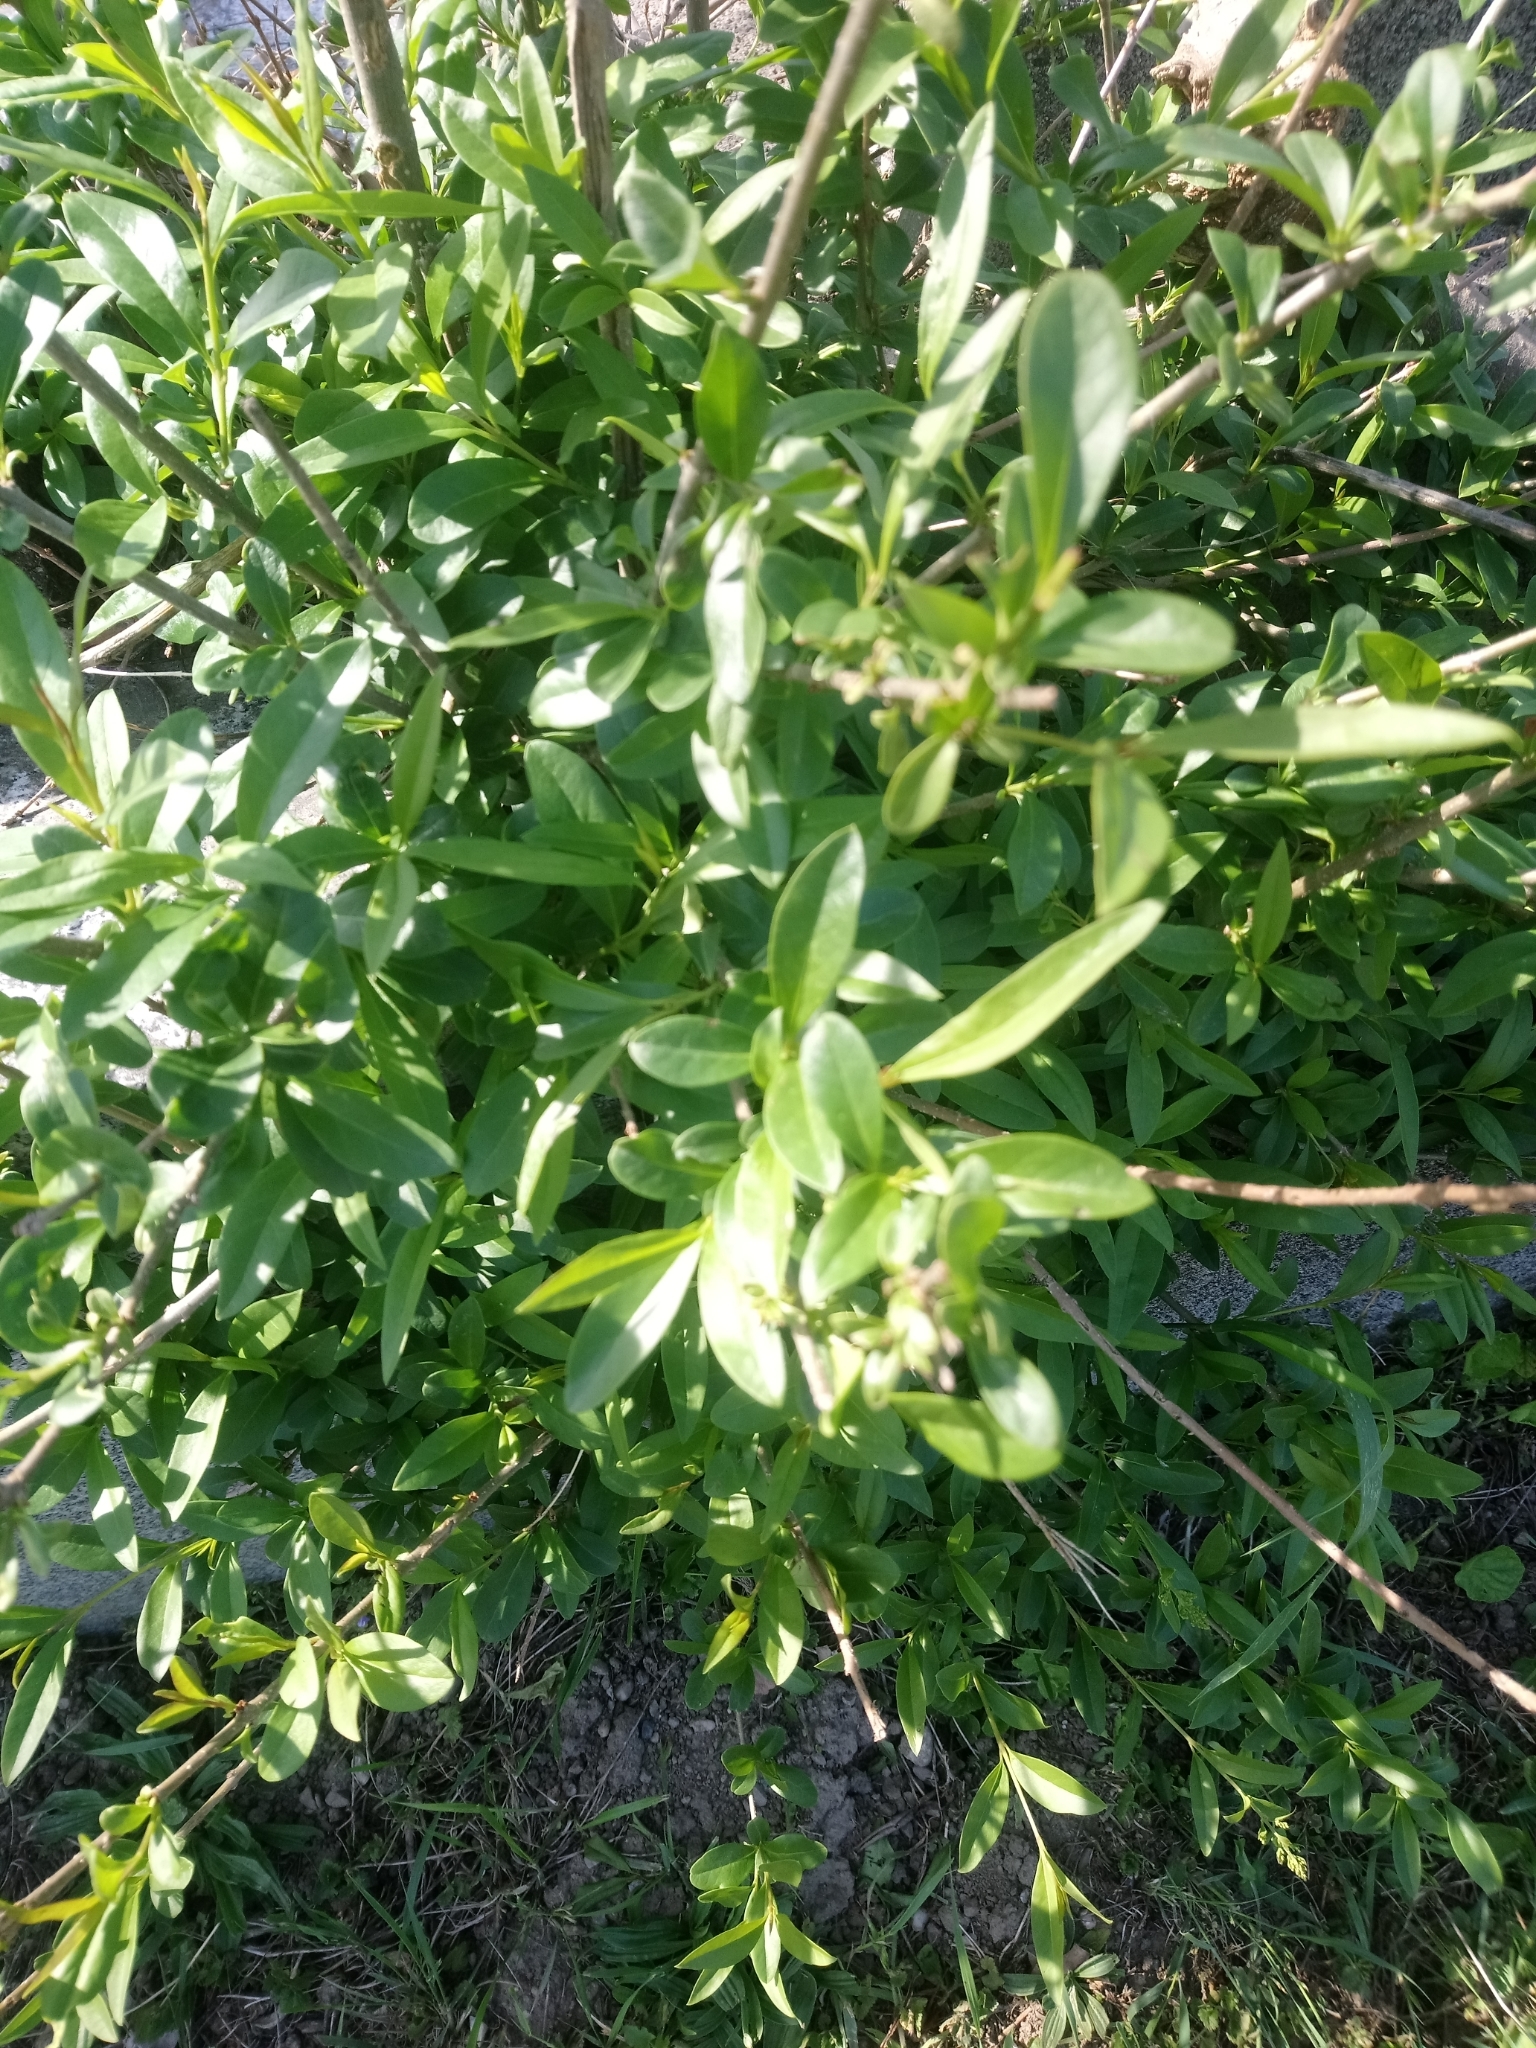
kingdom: Plantae
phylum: Tracheophyta
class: Magnoliopsida
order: Lamiales
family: Oleaceae
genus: Ligustrum
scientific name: Ligustrum vulgare
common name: Wild privet
